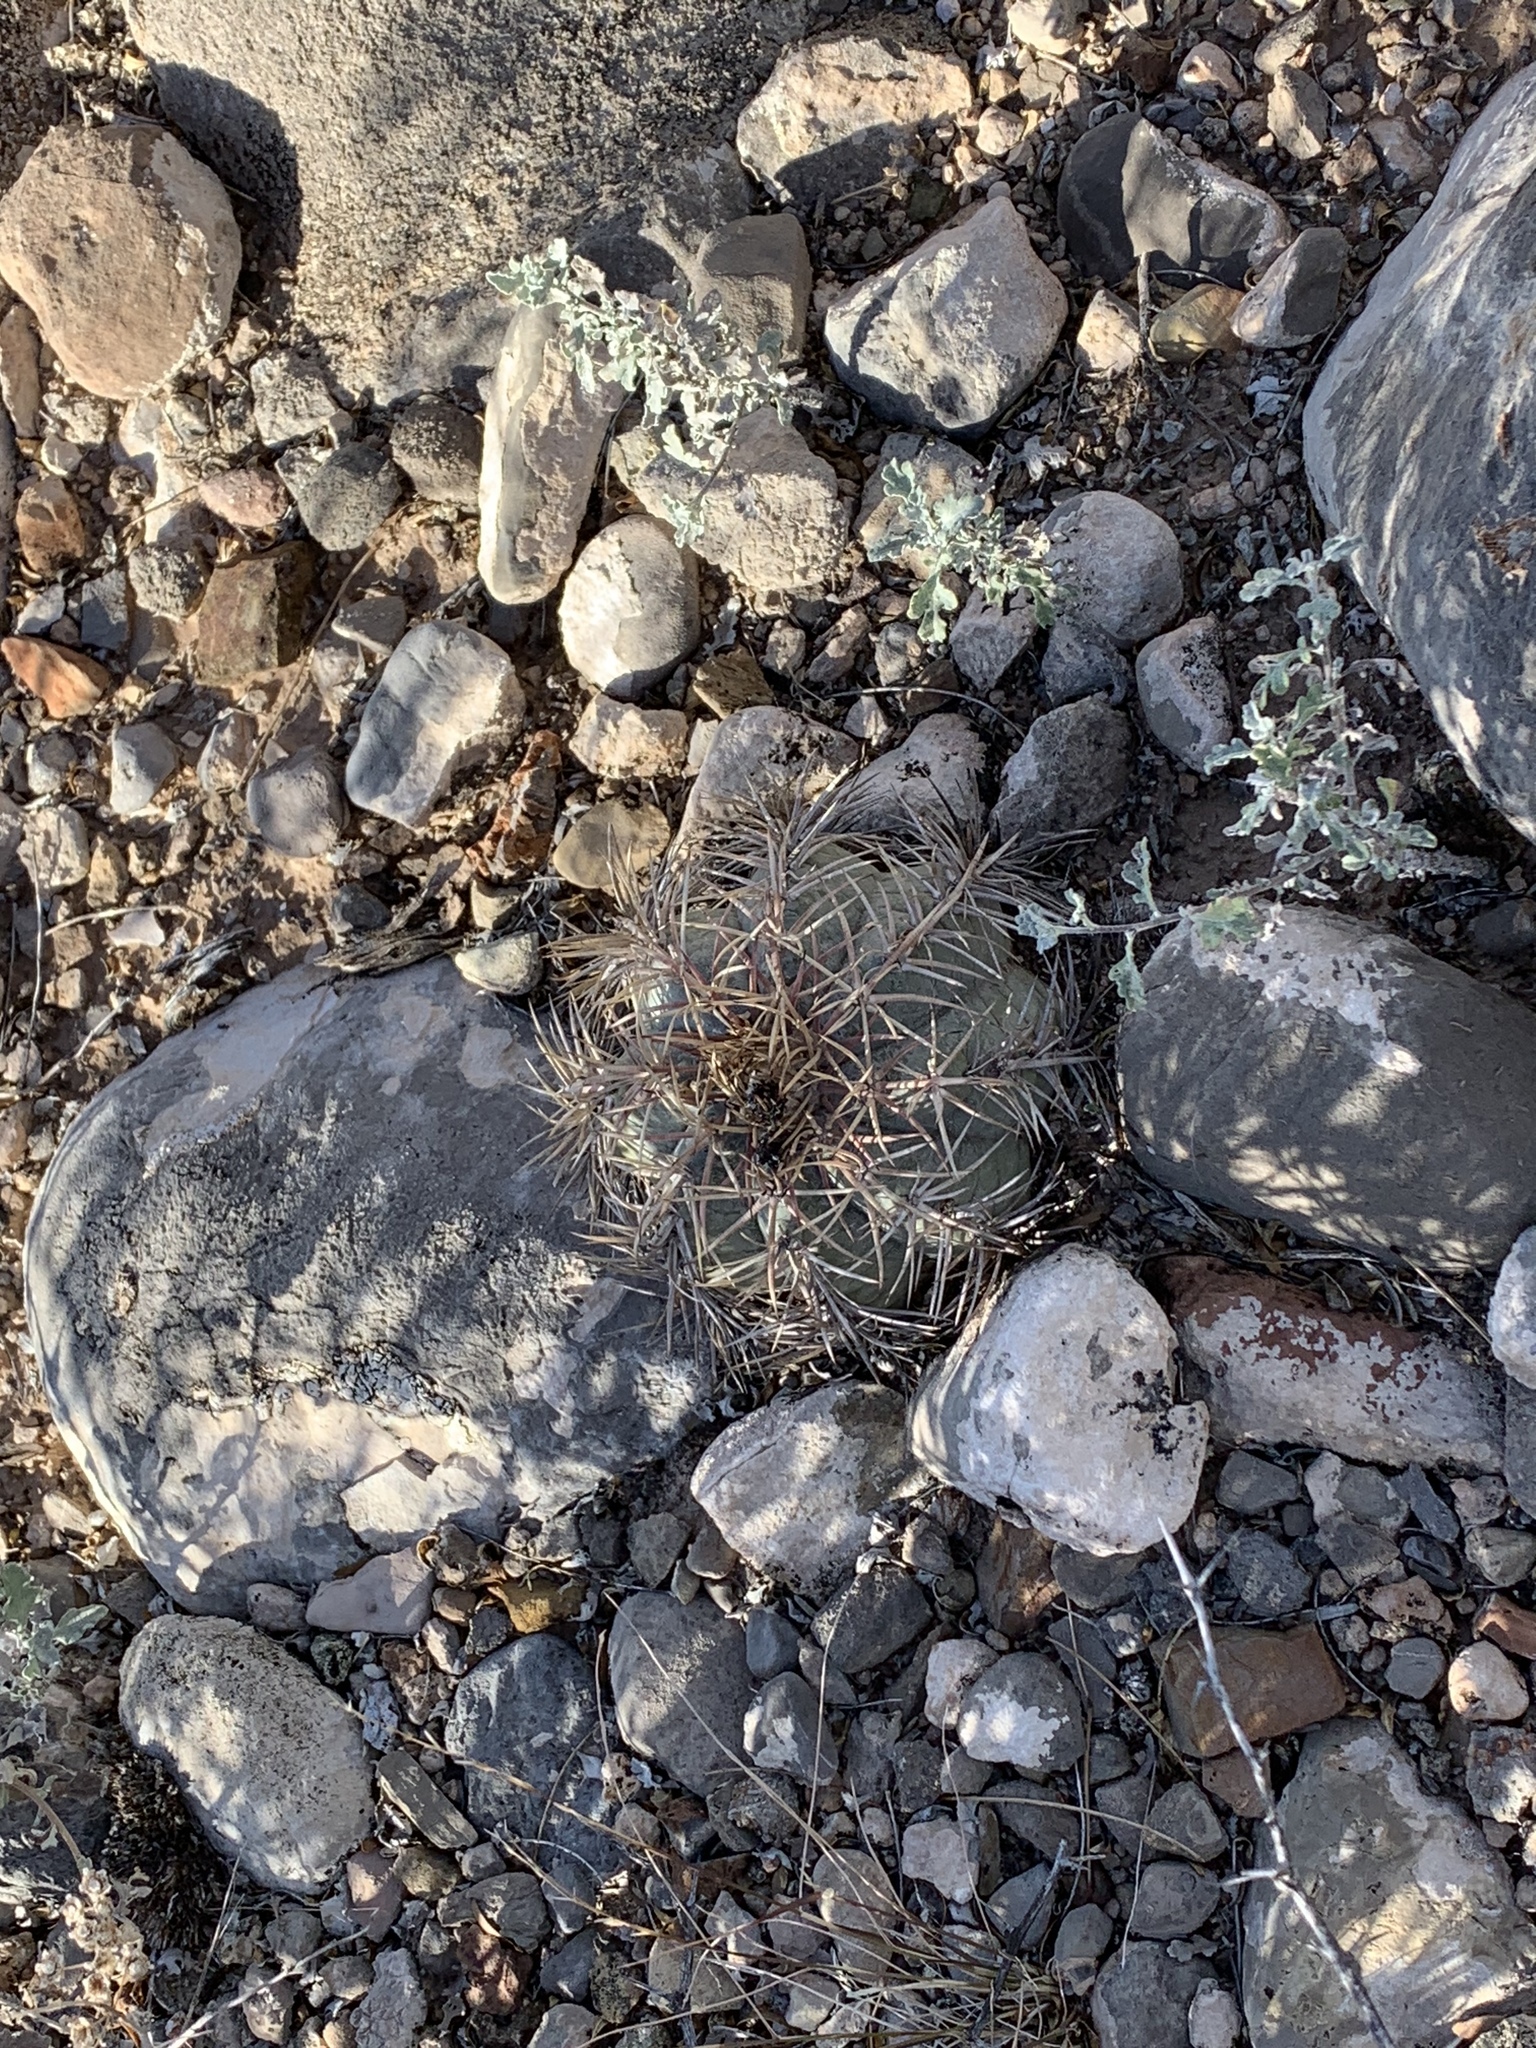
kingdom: Plantae
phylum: Tracheophyta
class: Magnoliopsida
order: Caryophyllales
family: Cactaceae
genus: Echinocactus
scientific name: Echinocactus horizonthalonius
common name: Devilshead
